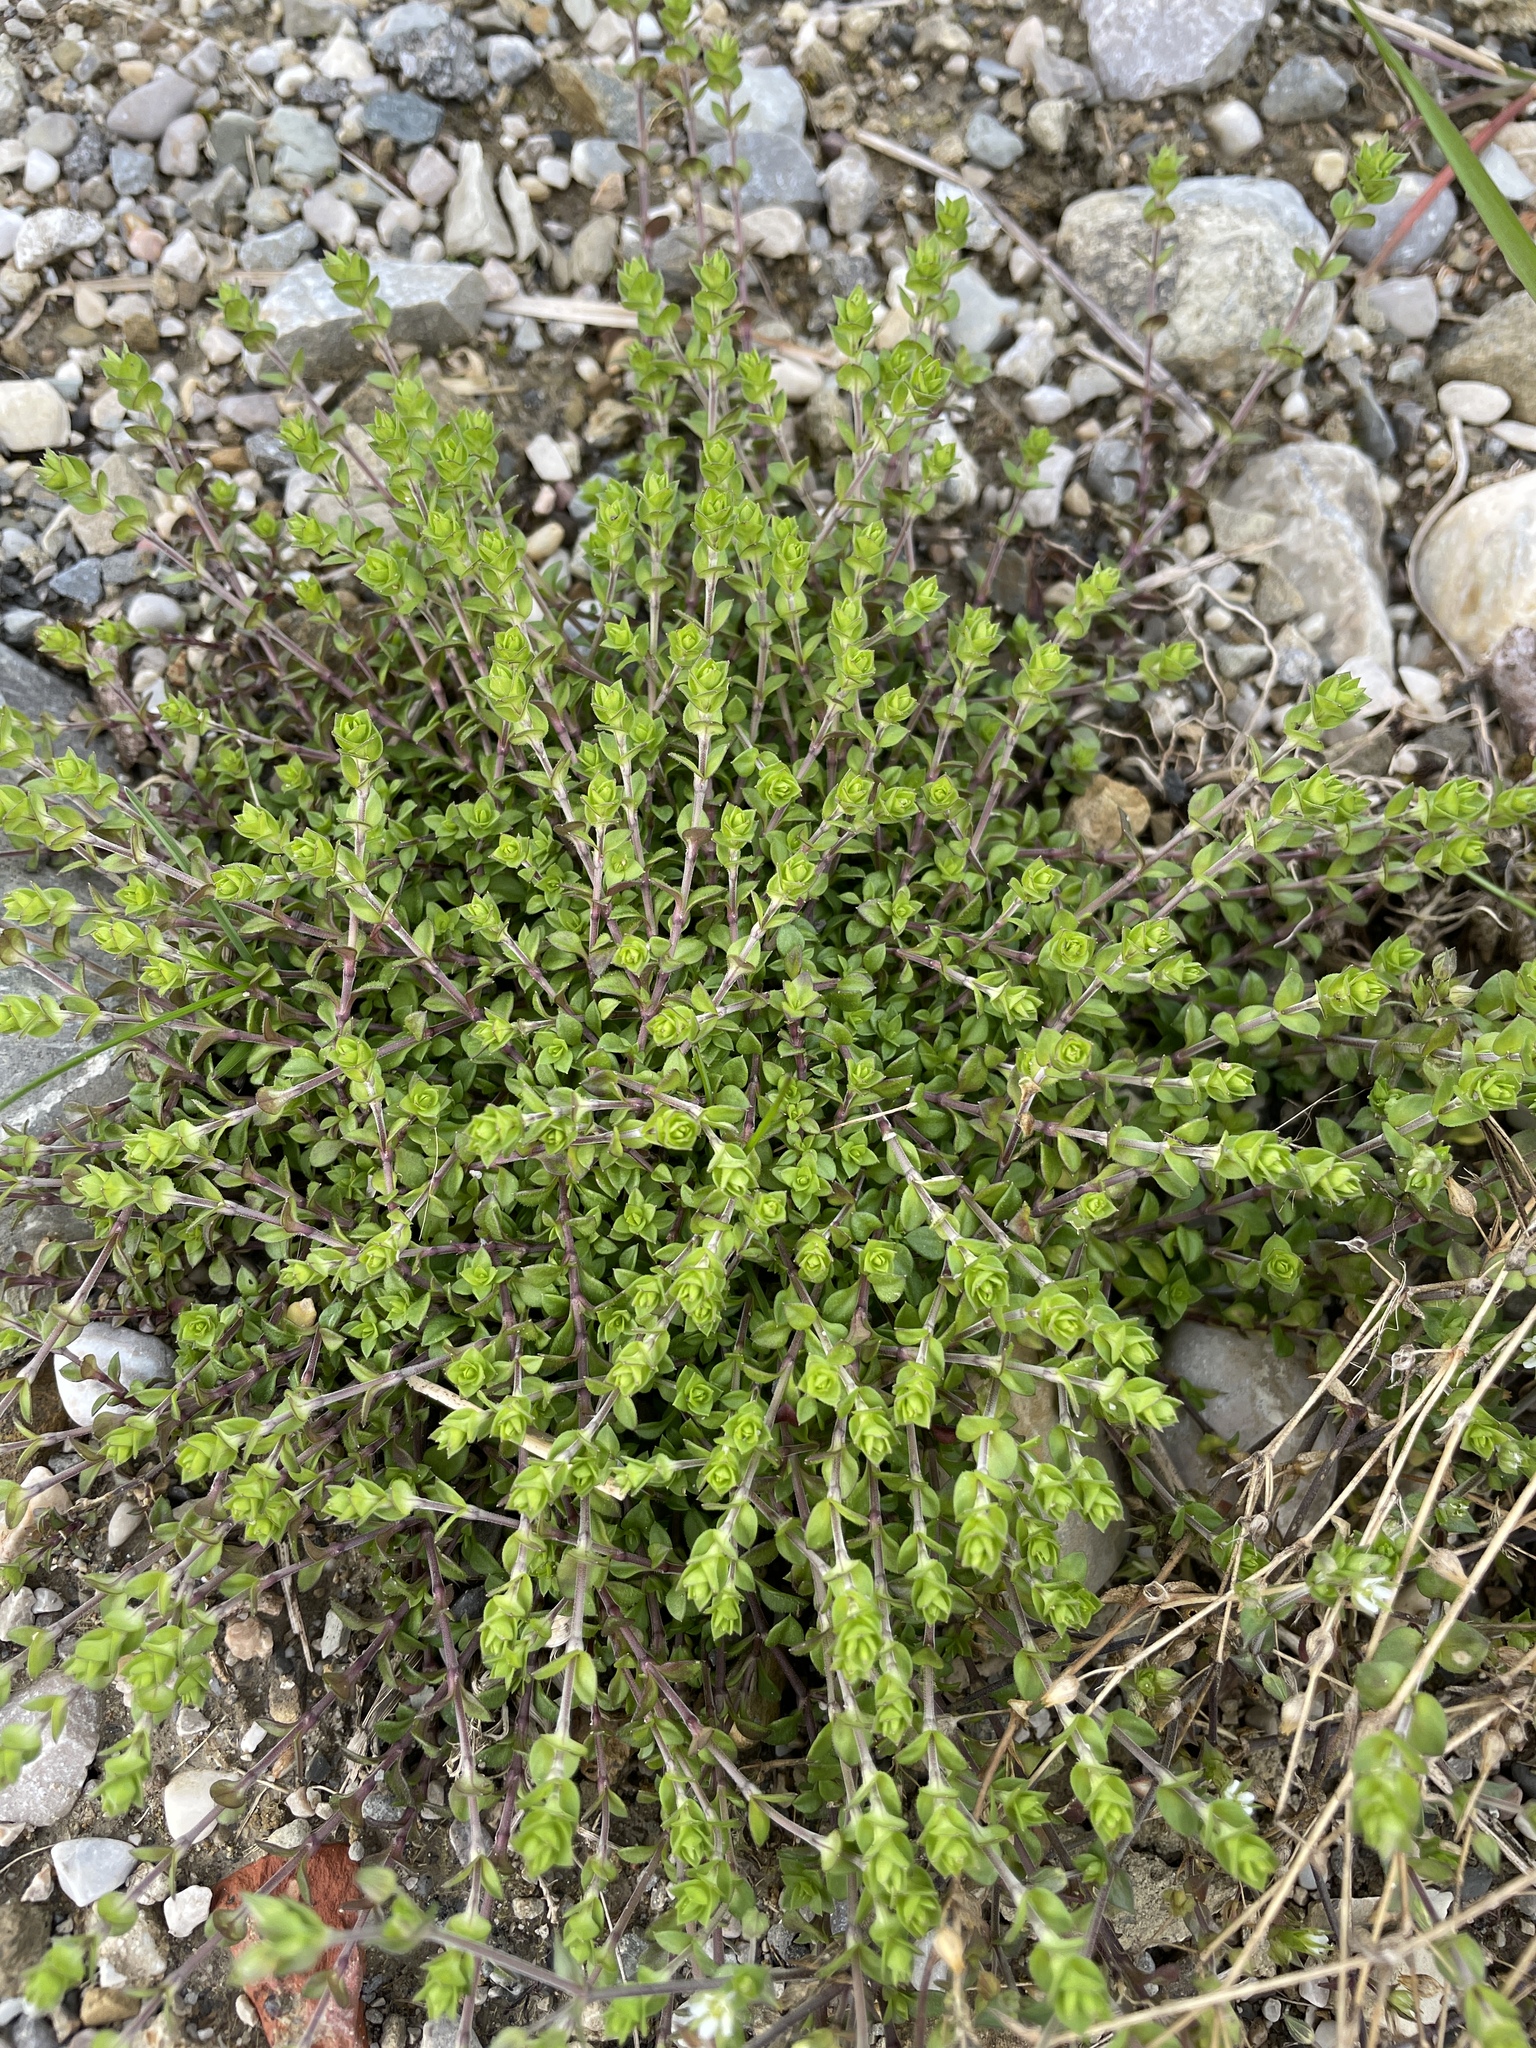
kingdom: Plantae
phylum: Tracheophyta
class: Magnoliopsida
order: Caryophyllales
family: Caryophyllaceae
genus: Arenaria
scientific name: Arenaria serpyllifolia
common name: Thyme-leaved sandwort
